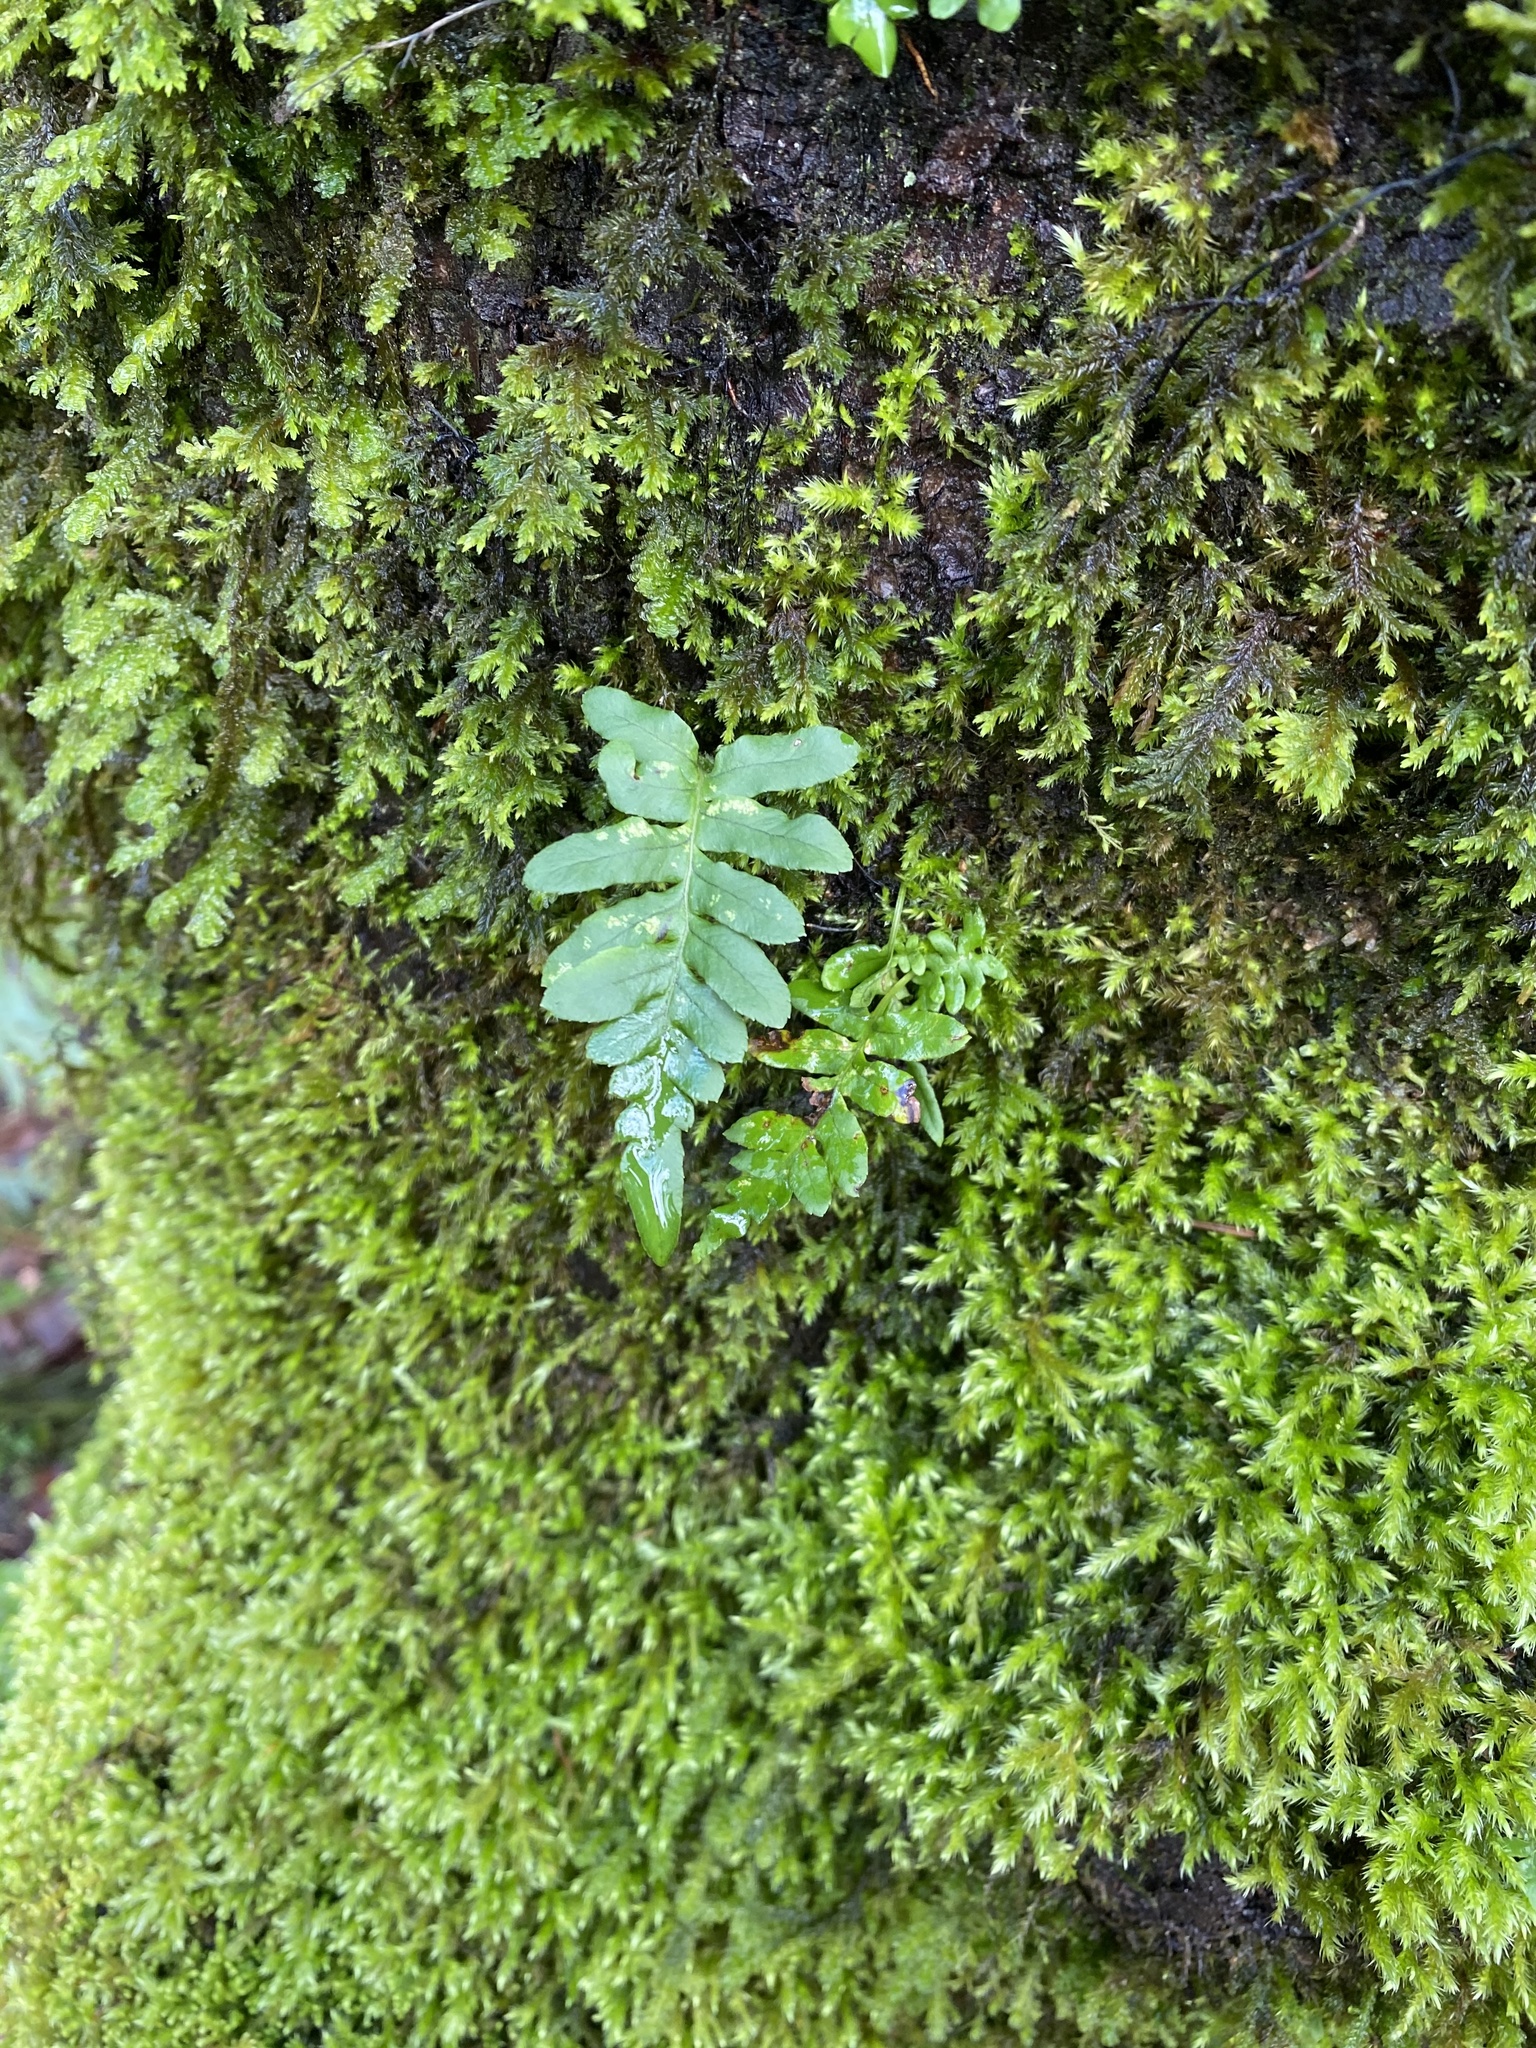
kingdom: Plantae
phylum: Tracheophyta
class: Polypodiopsida
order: Polypodiales
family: Polypodiaceae
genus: Polypodium
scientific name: Polypodium glycyrrhiza
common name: Licorice fern
